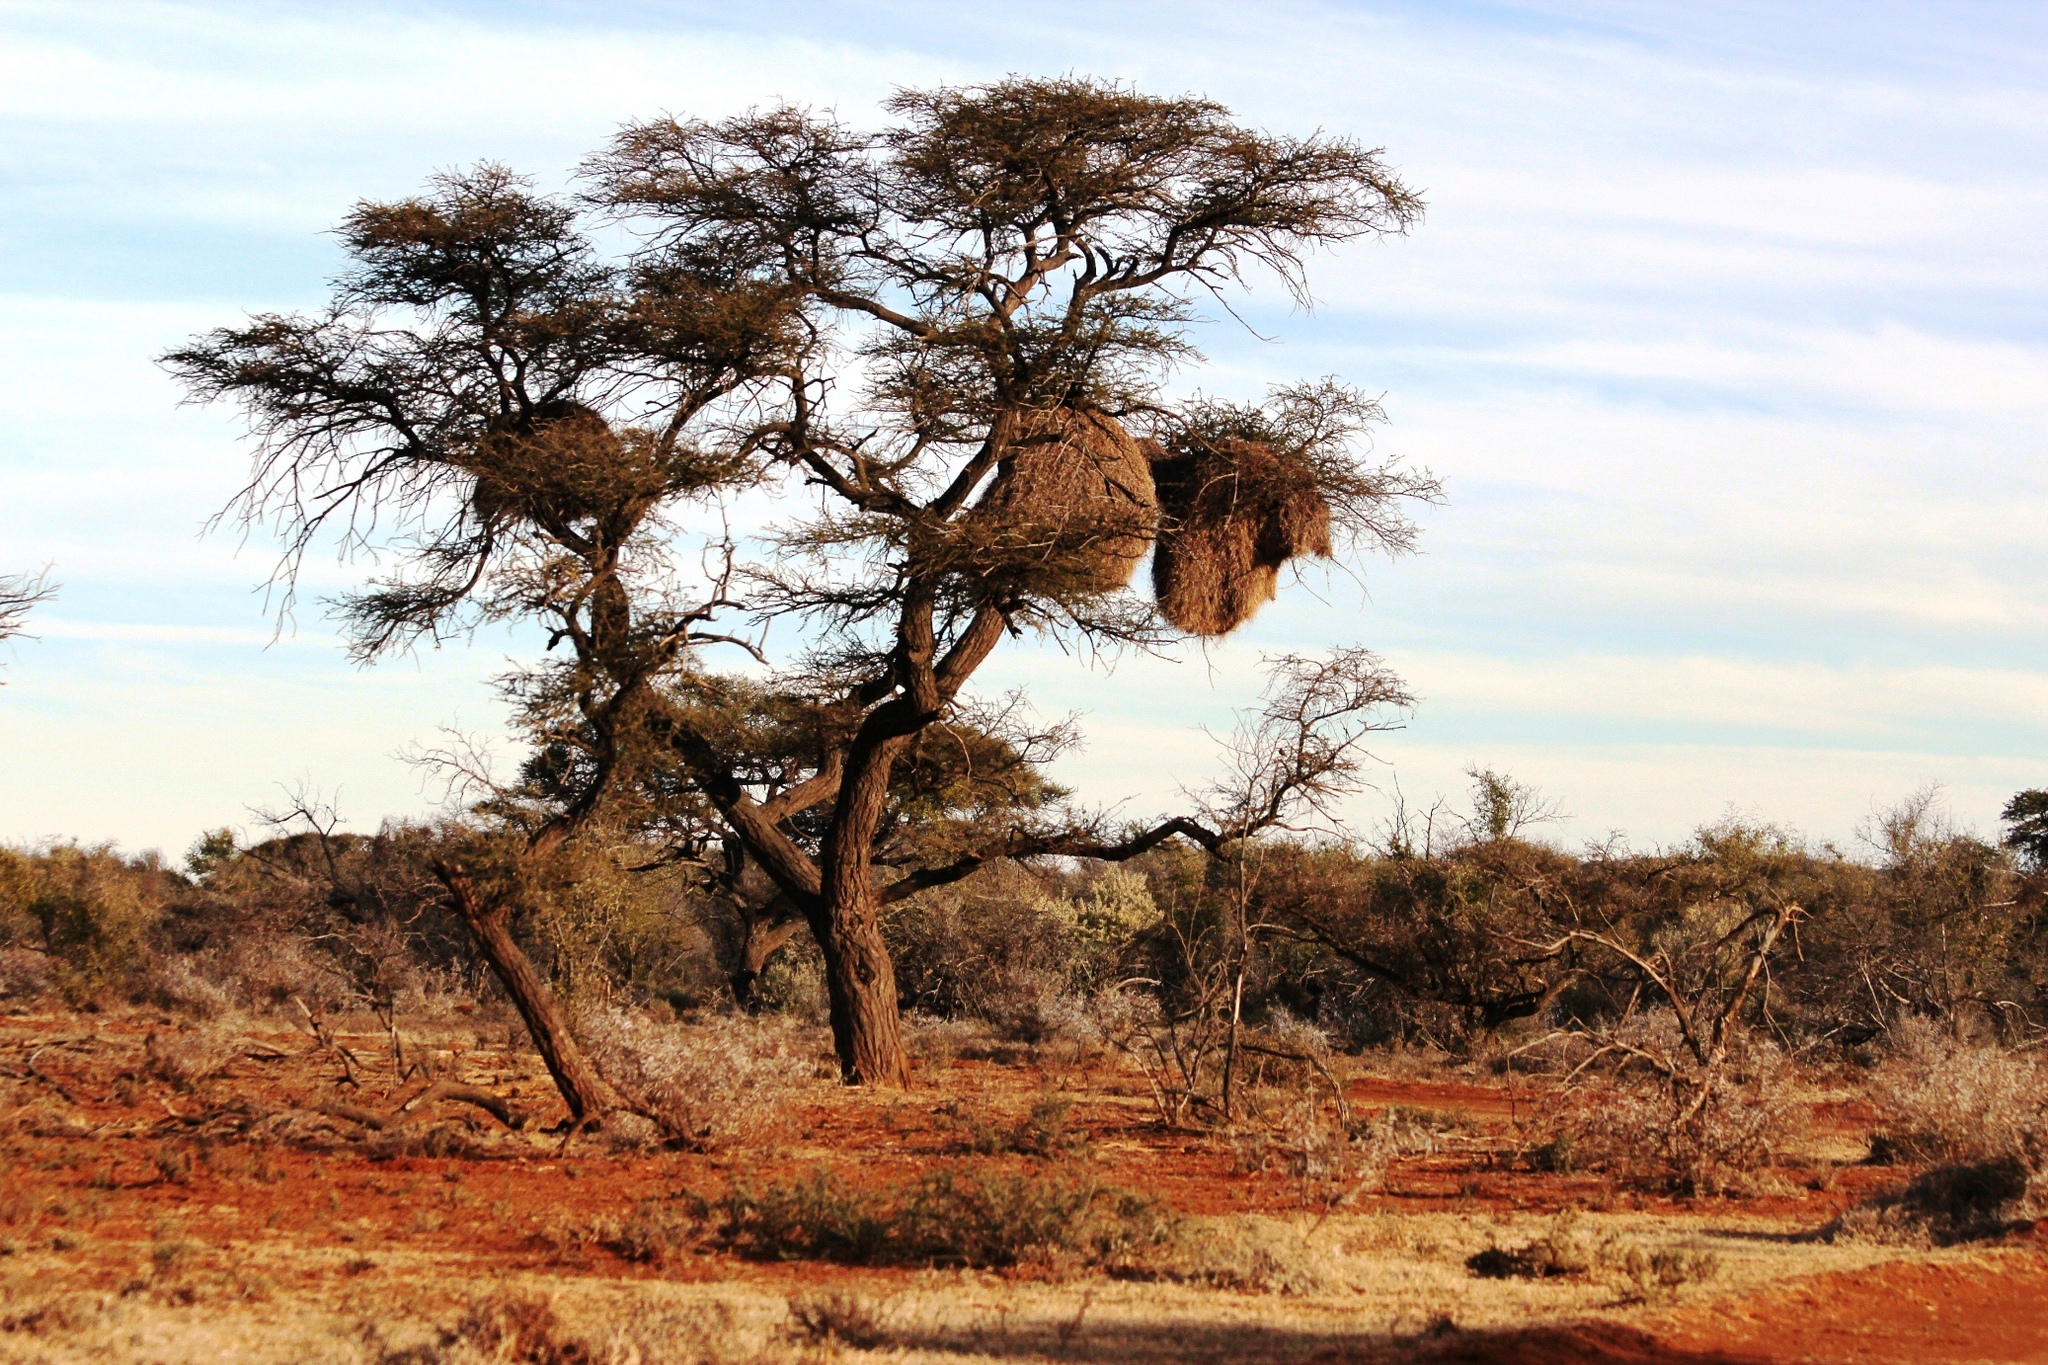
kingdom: Animalia
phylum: Chordata
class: Aves
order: Passeriformes
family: Passeridae
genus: Philetairus
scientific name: Philetairus socius
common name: Sociable weaver
